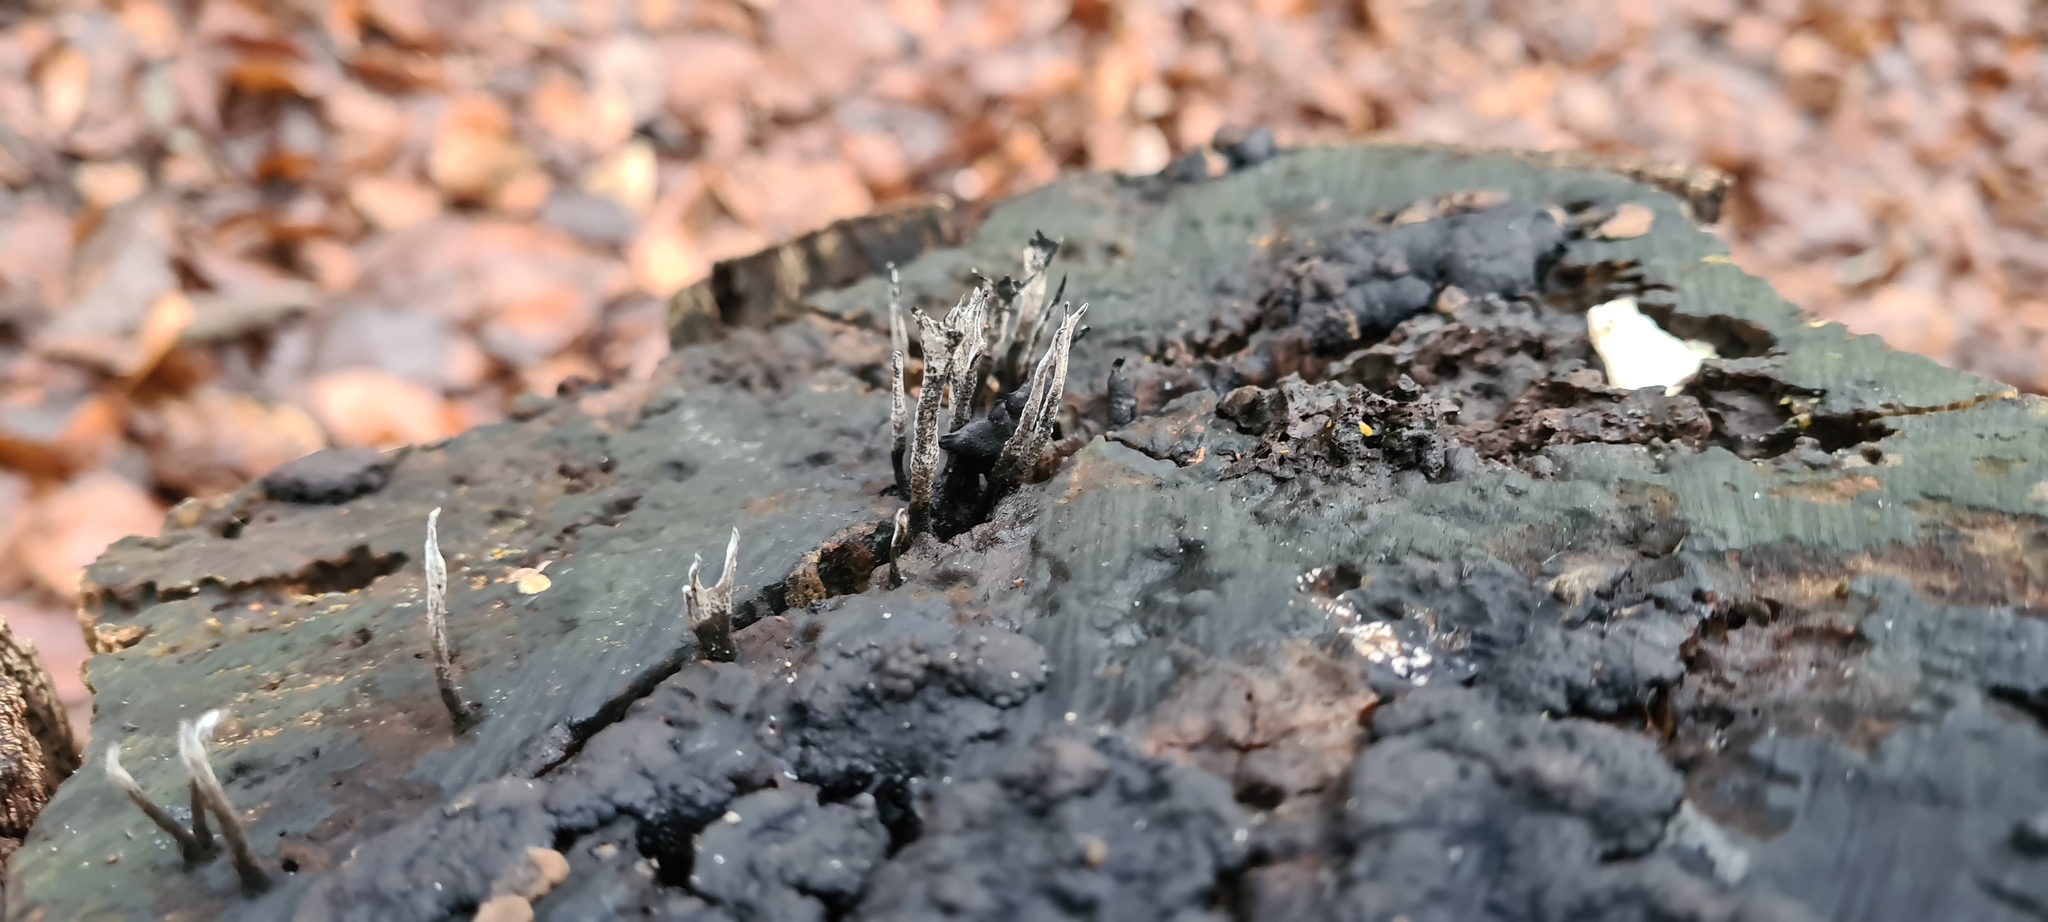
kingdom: Fungi
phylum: Ascomycota
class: Sordariomycetes
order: Xylariales
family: Xylariaceae
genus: Xylaria
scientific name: Xylaria hypoxylon
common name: Candle-snuff fungus
